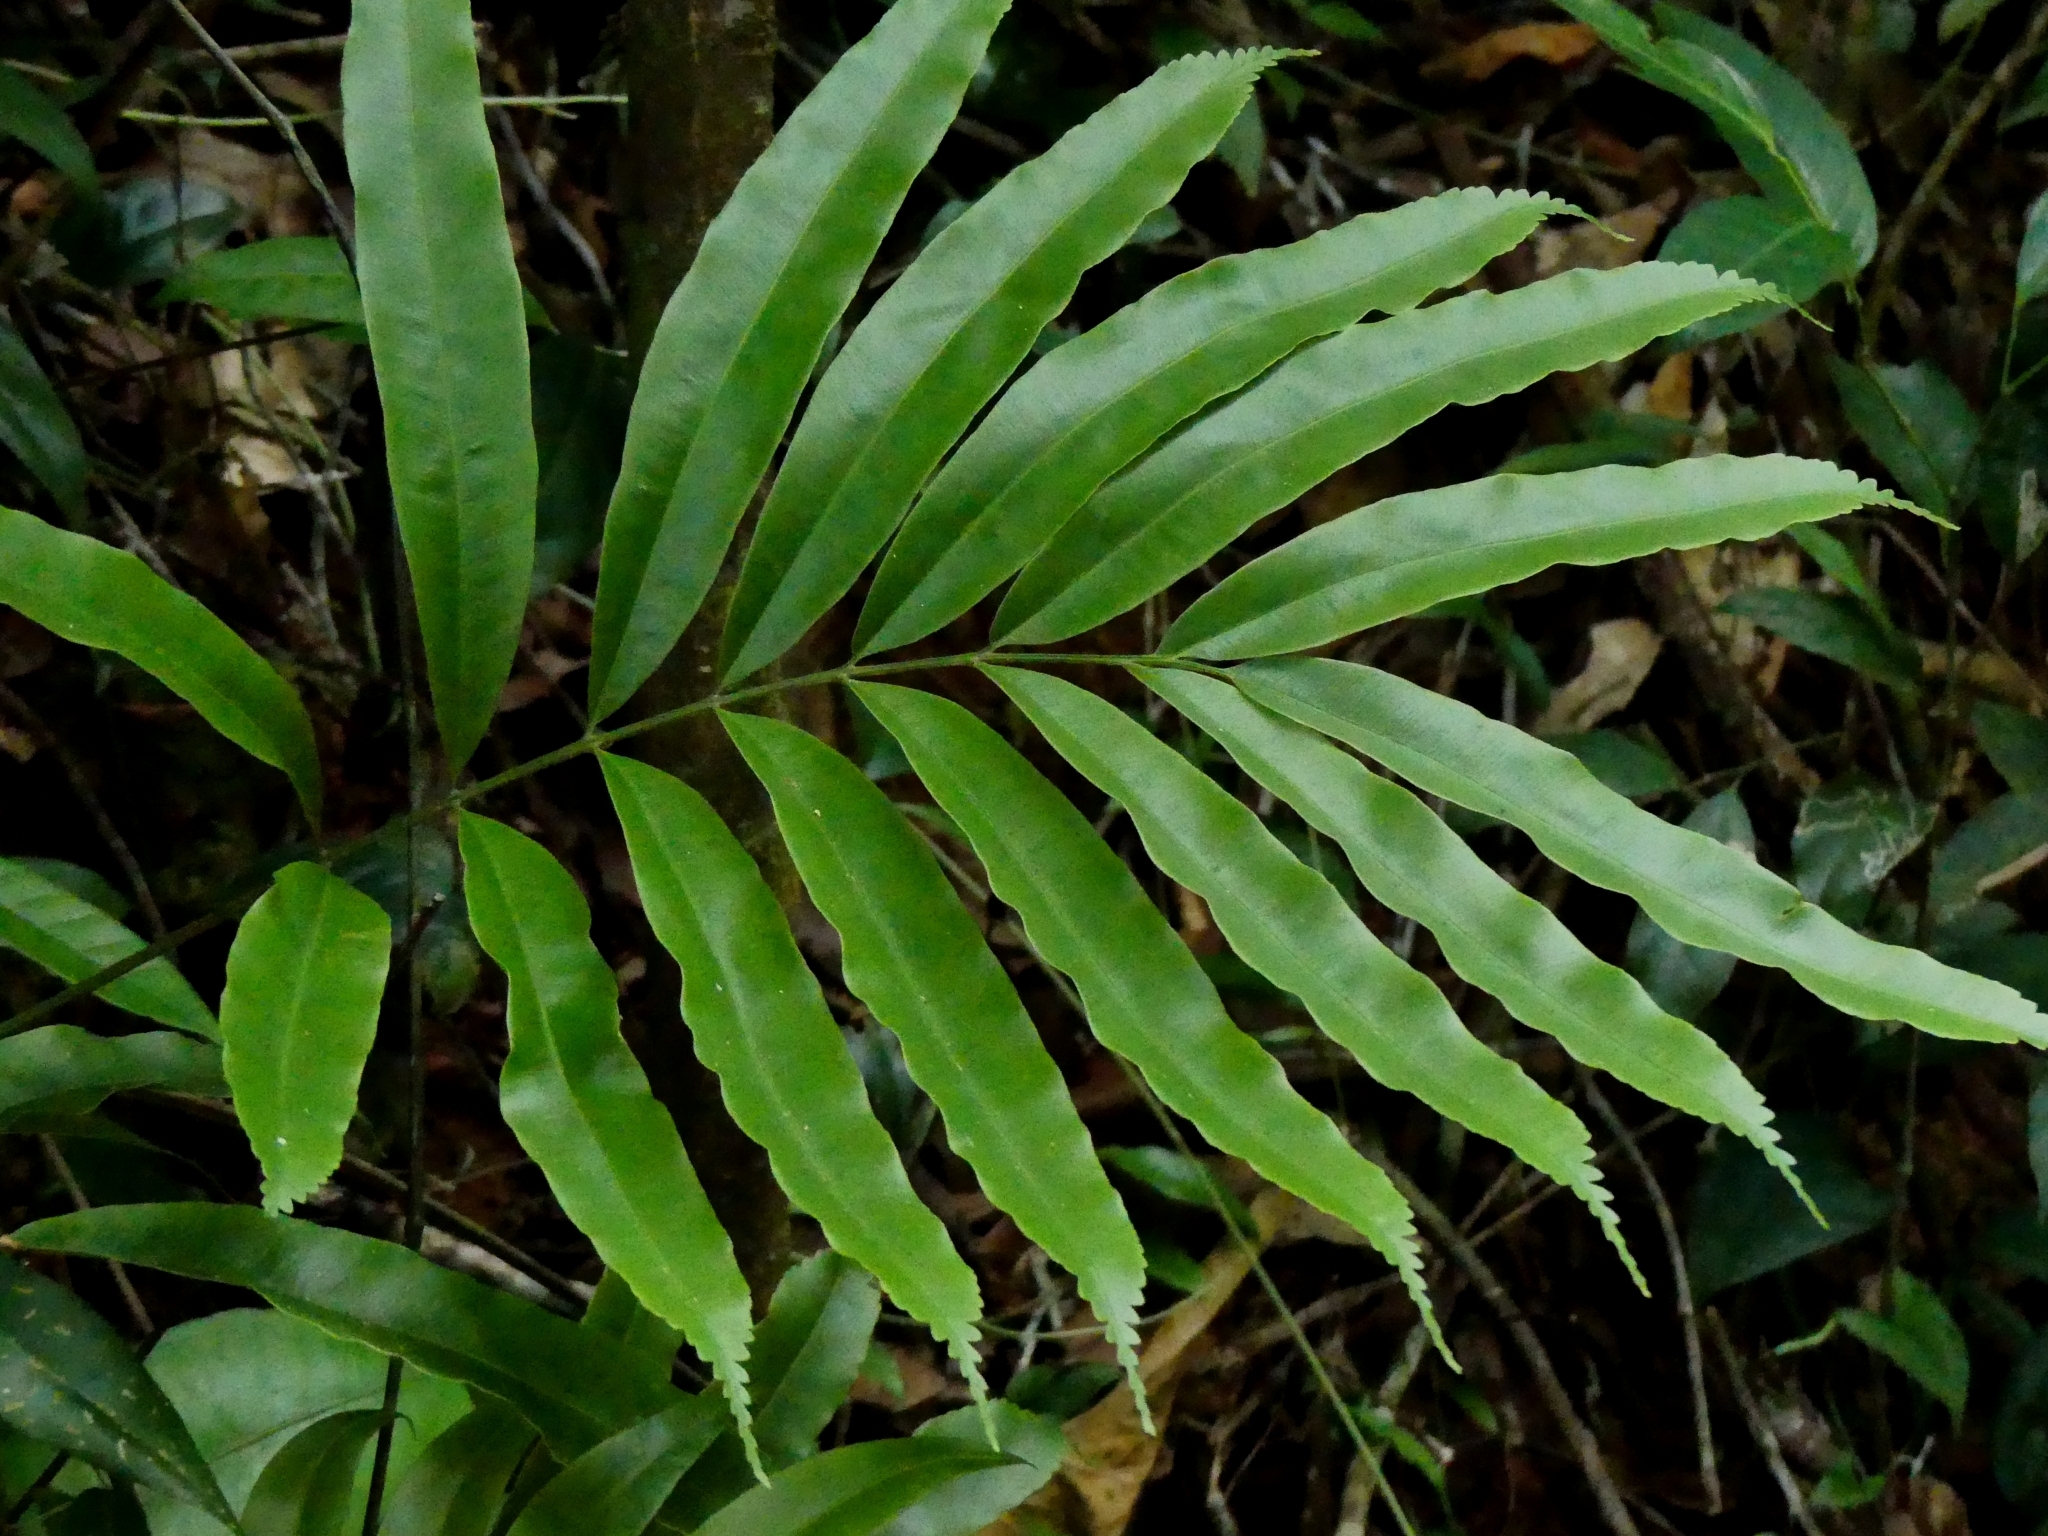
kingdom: Plantae
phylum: Tracheophyta
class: Polypodiopsida
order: Cyatheales
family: Metaxyaceae
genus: Metaxya
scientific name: Metaxya scalaris
